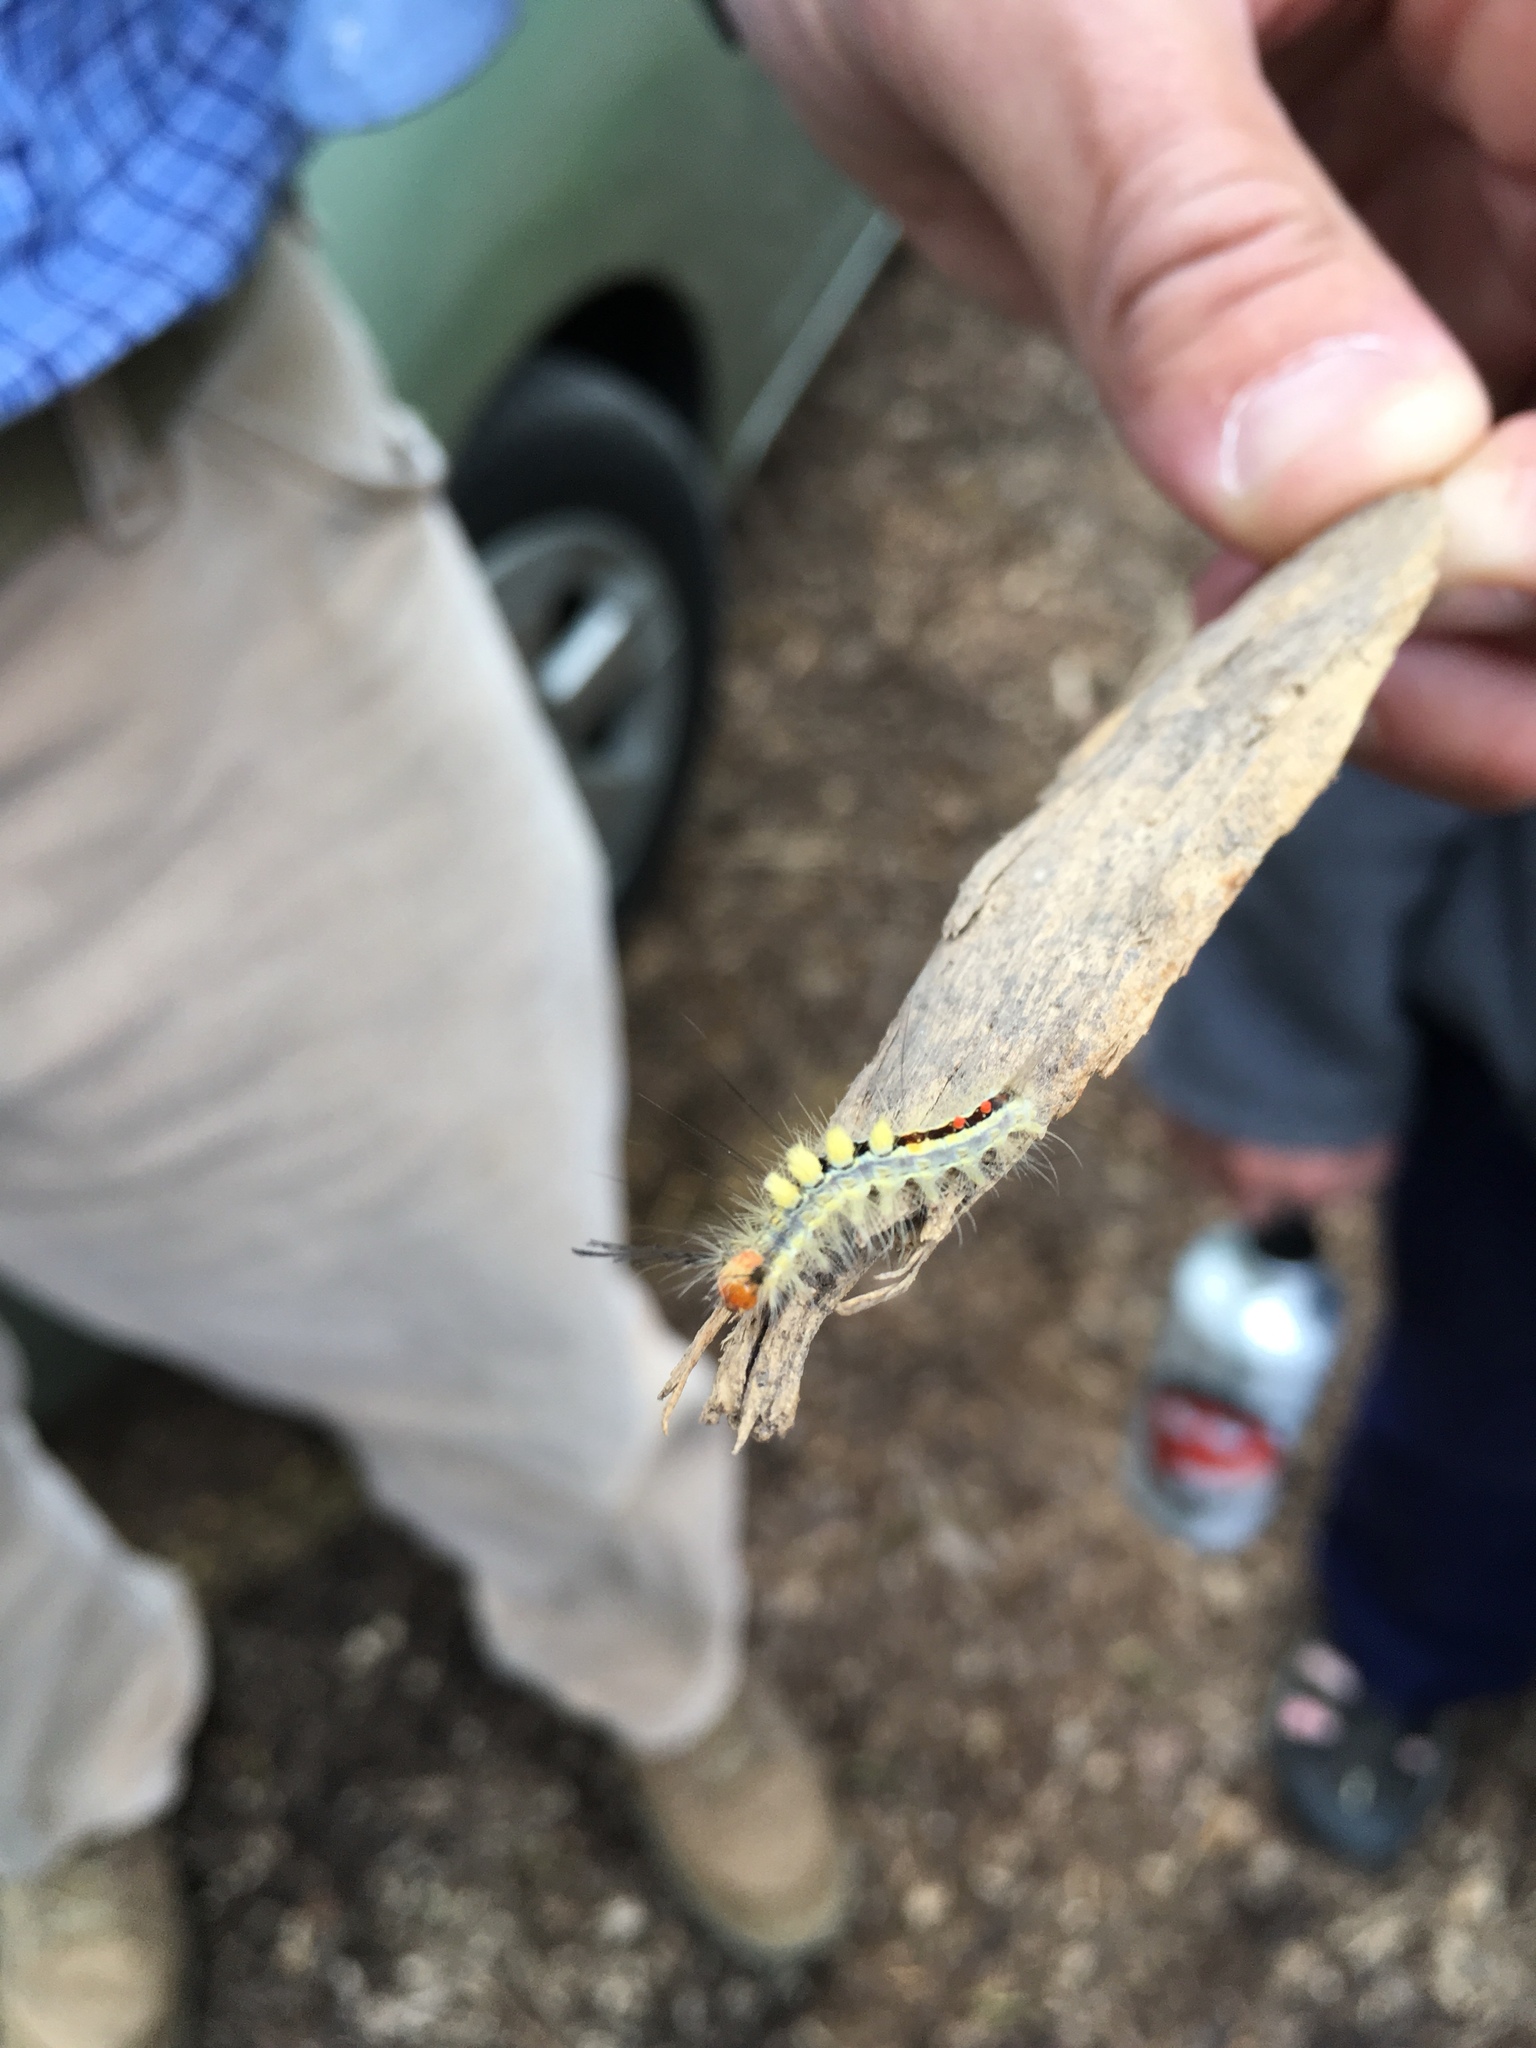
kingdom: Animalia
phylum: Arthropoda
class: Insecta
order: Lepidoptera
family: Erebidae
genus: Orgyia
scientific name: Orgyia leucostigma
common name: White-marked tussock moth
